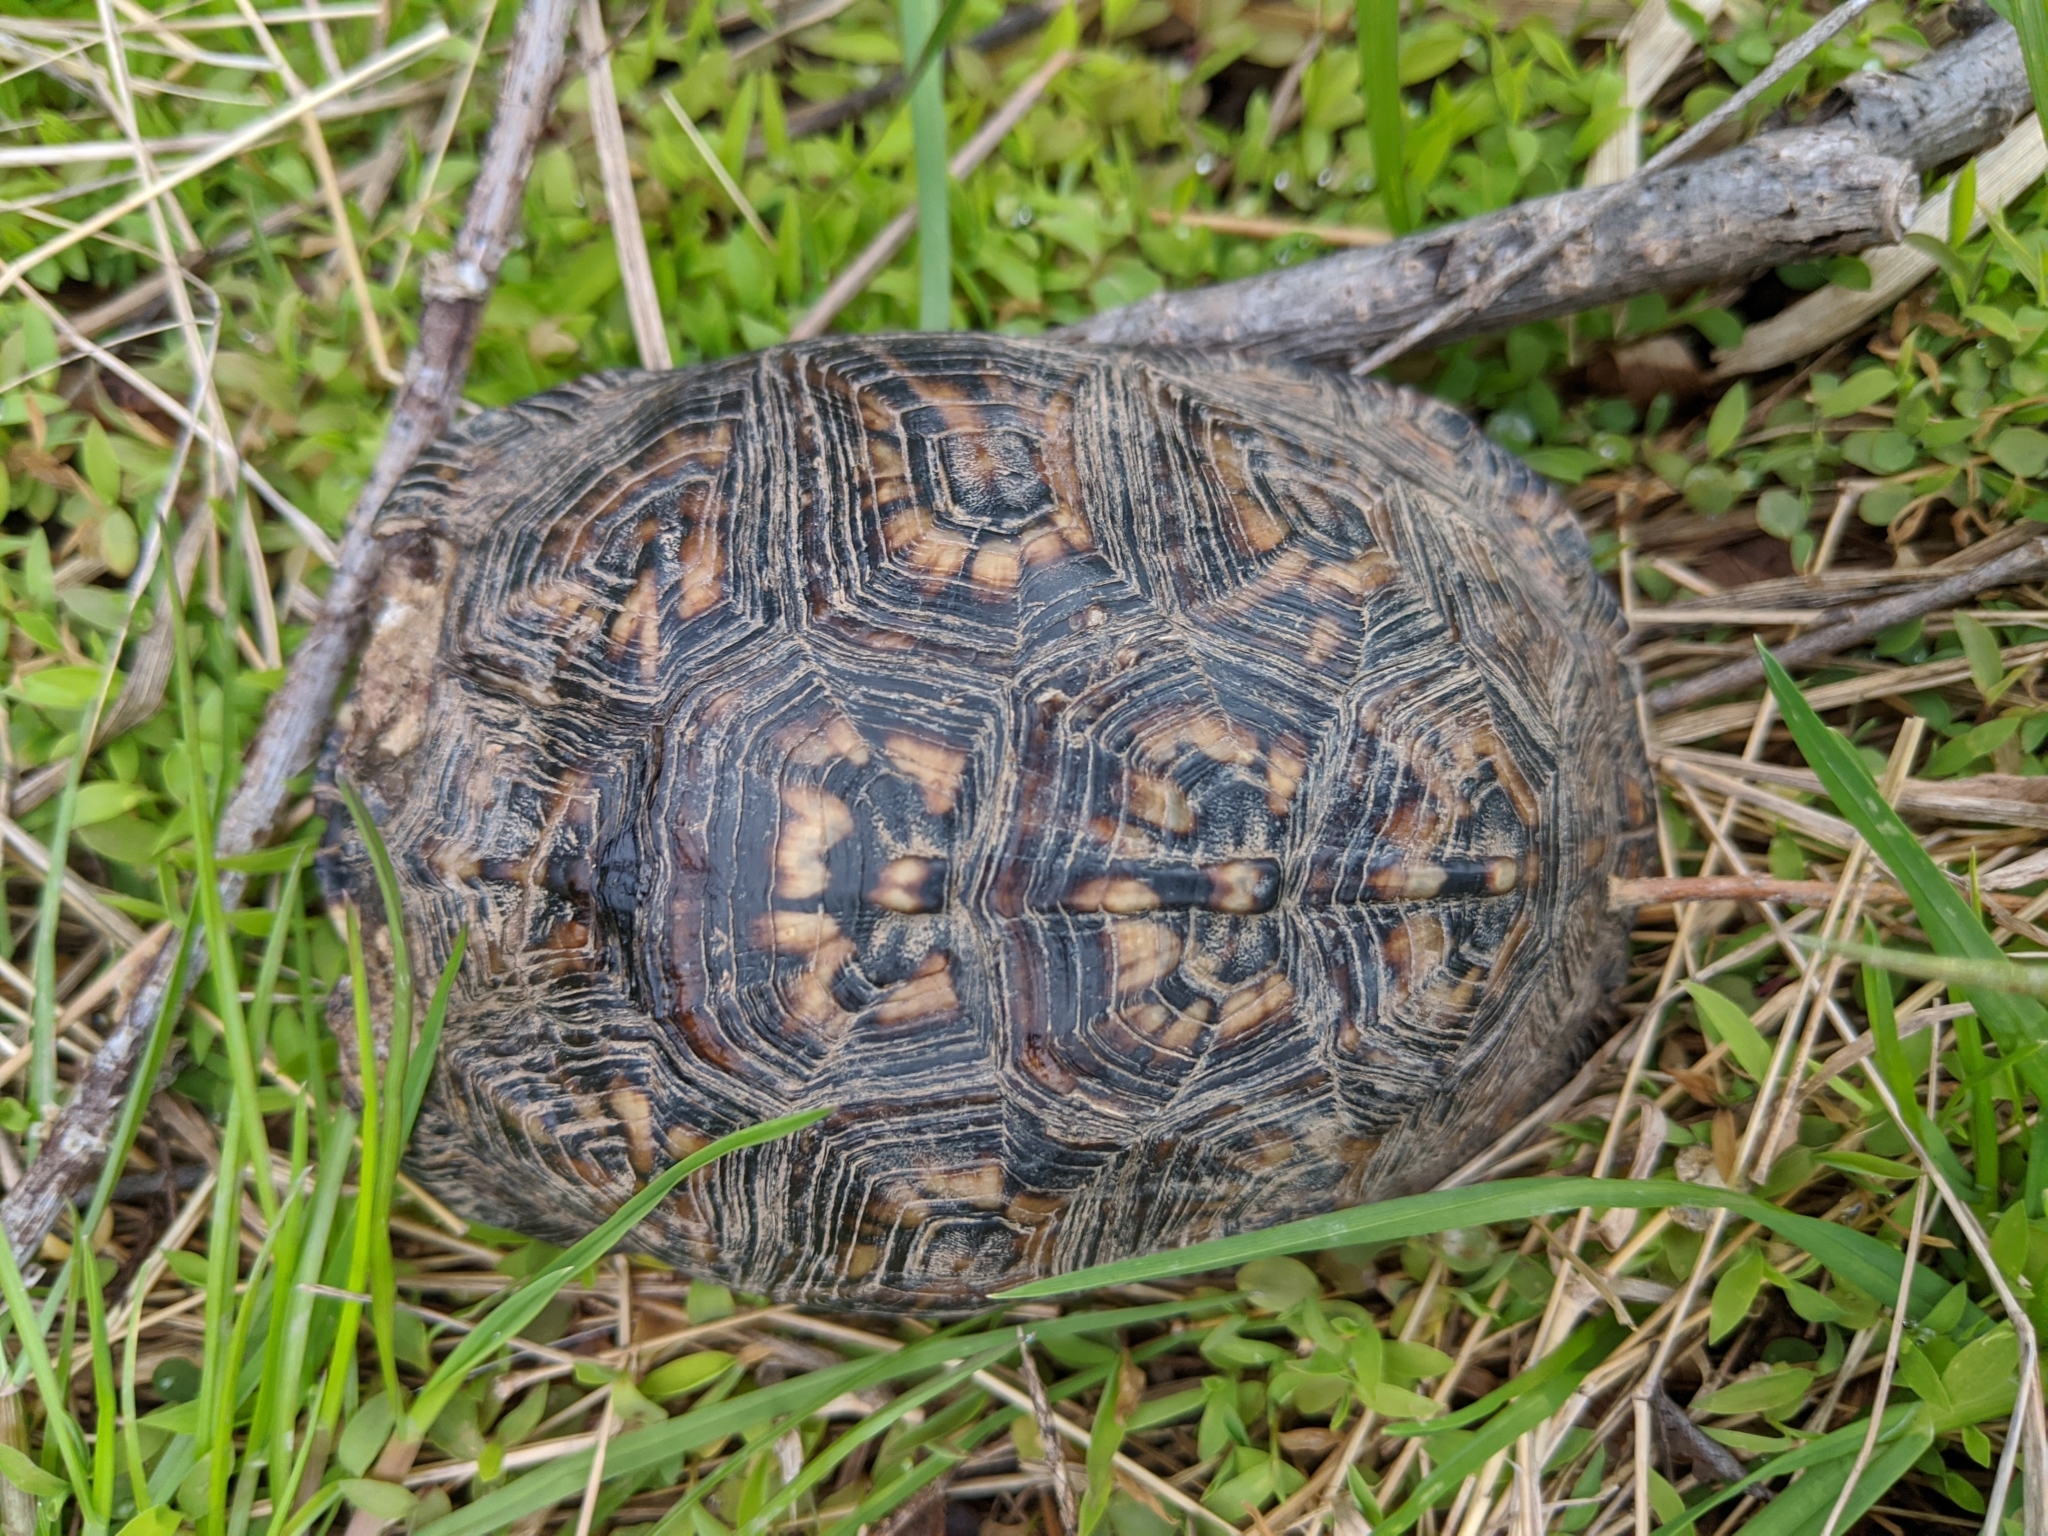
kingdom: Animalia
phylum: Chordata
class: Testudines
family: Emydidae
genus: Terrapene
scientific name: Terrapene carolina
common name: Common box turtle
